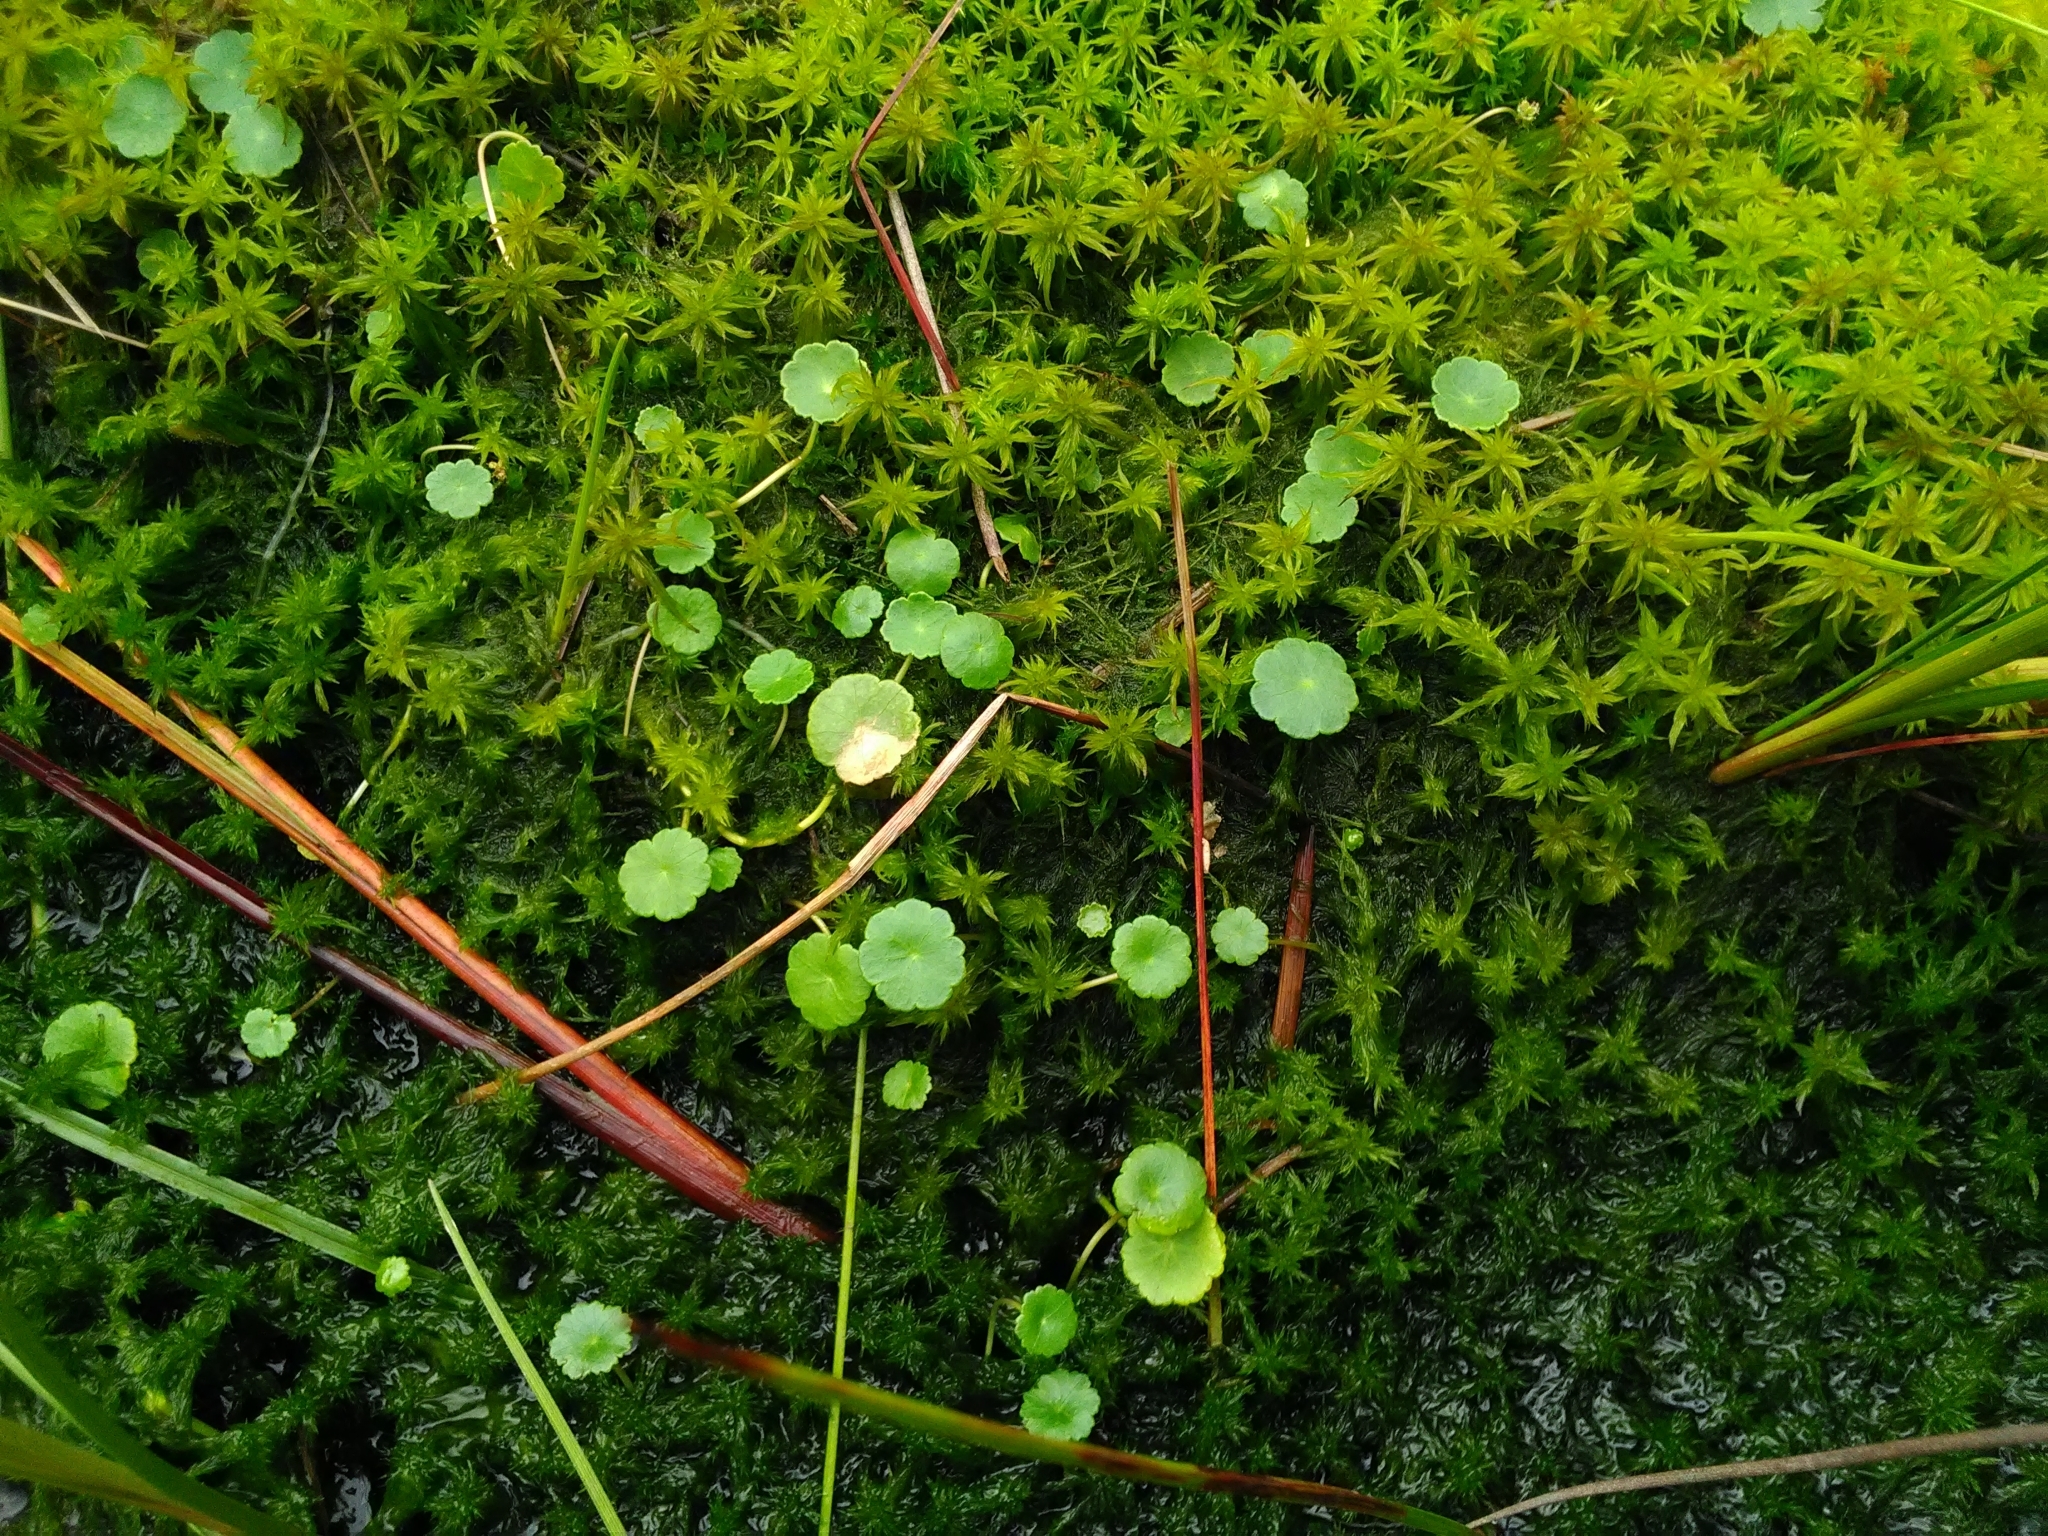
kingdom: Plantae
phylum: Tracheophyta
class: Magnoliopsida
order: Apiales
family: Araliaceae
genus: Hydrocotyle
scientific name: Hydrocotyle vulgaris
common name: Marsh pennywort
